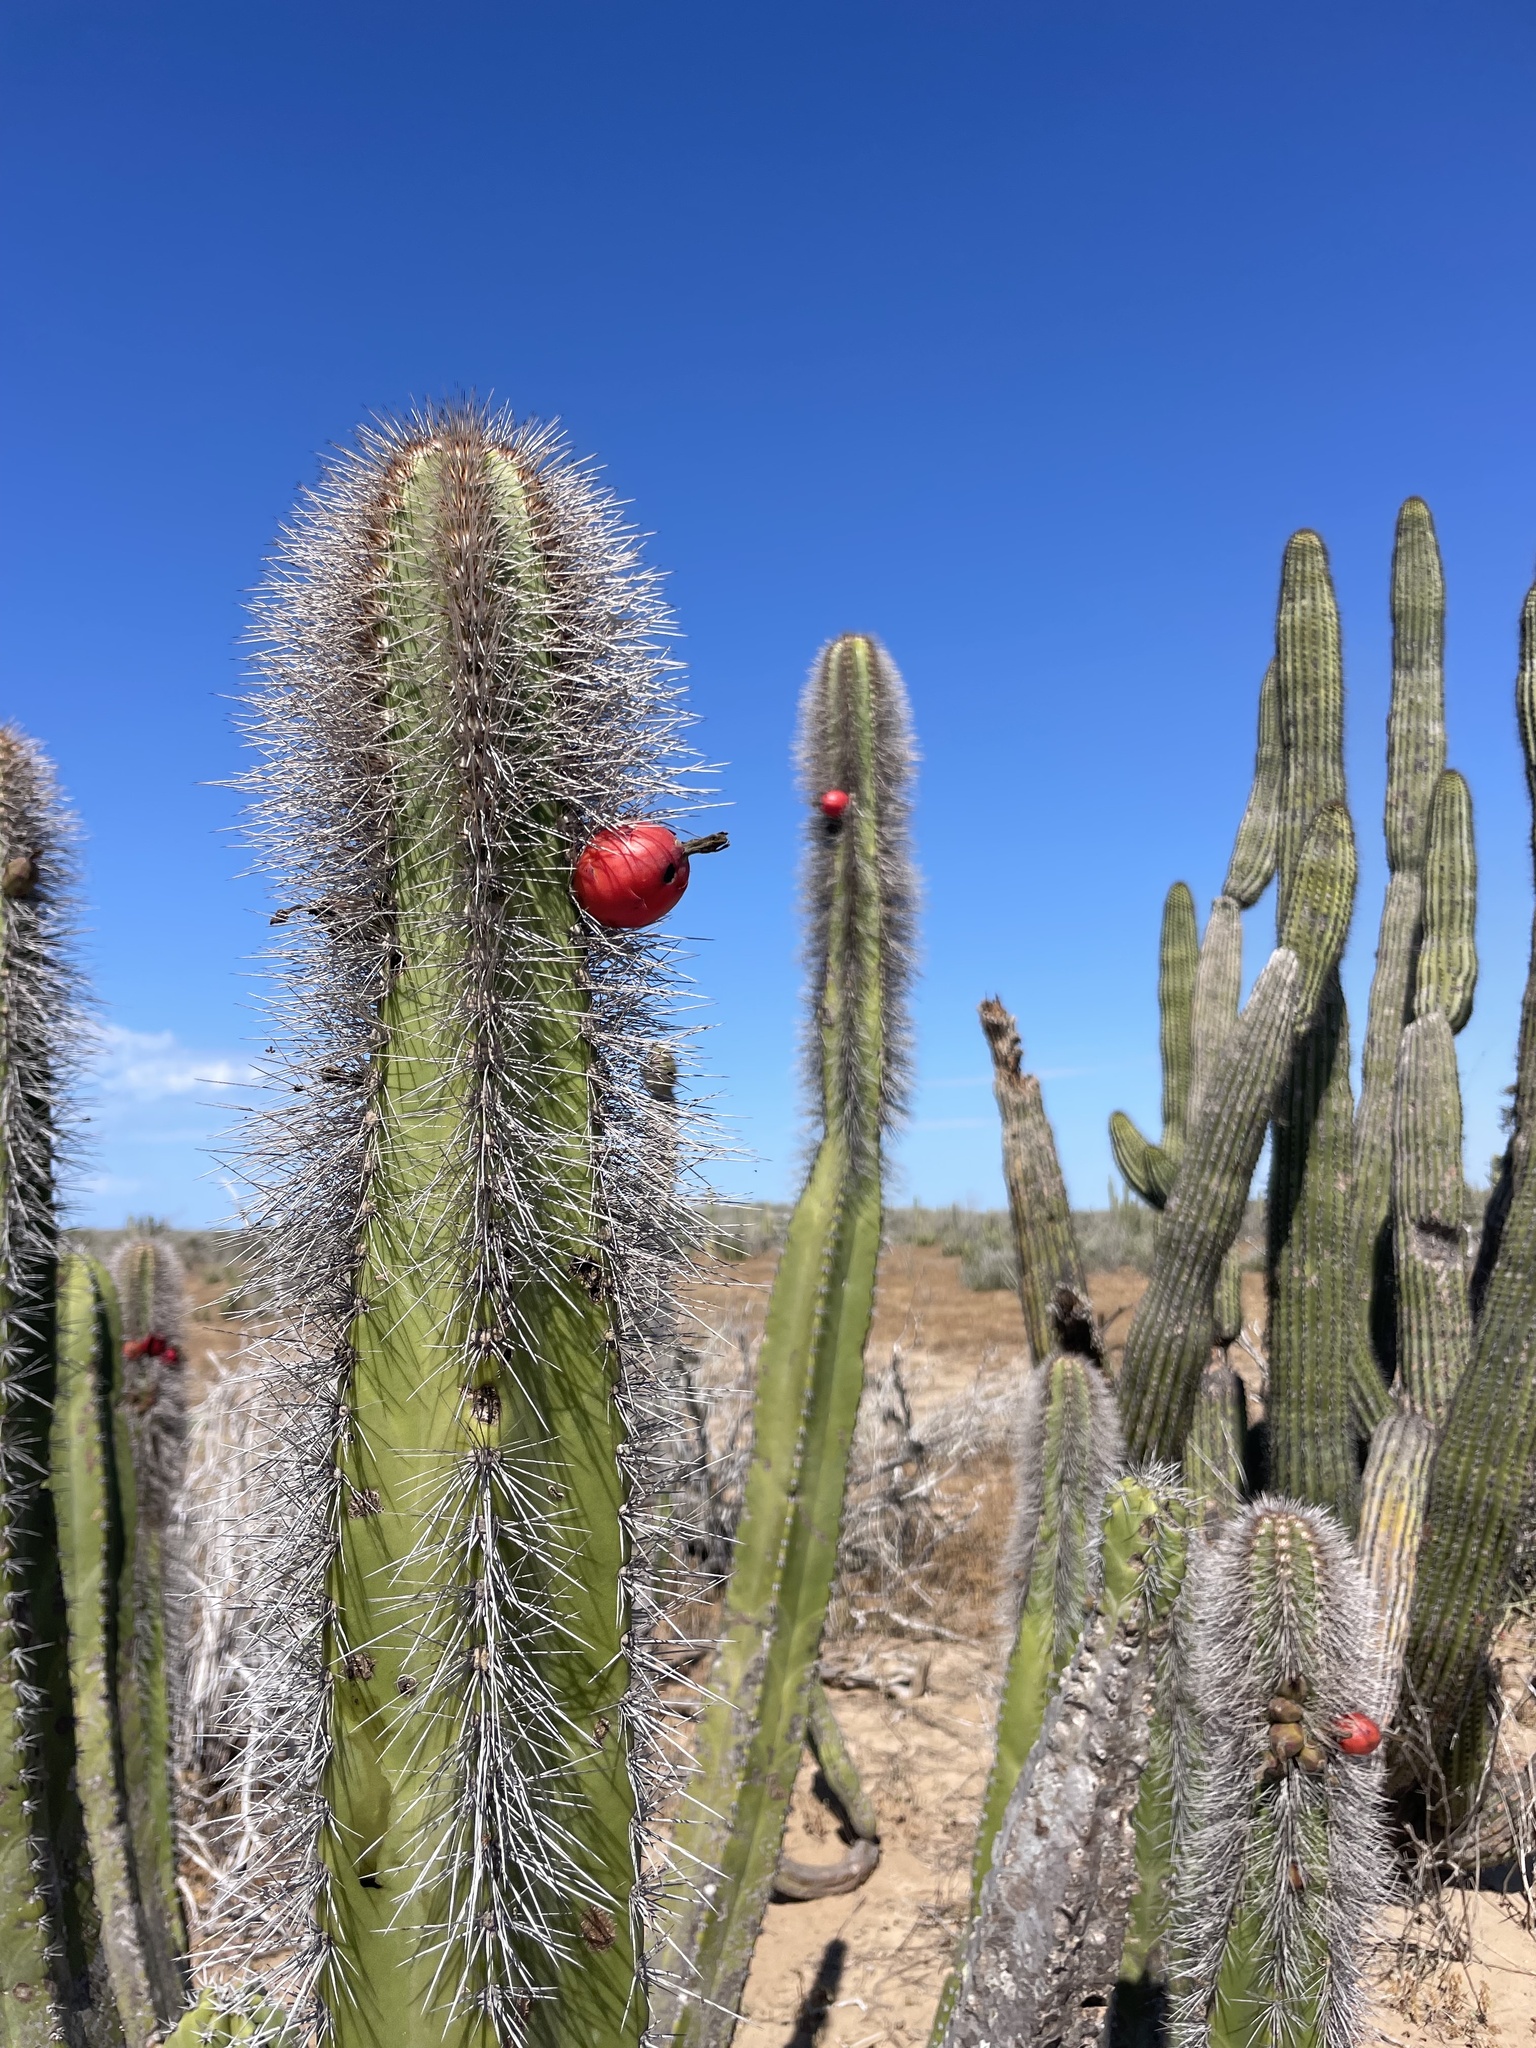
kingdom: Plantae
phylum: Tracheophyta
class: Magnoliopsida
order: Caryophyllales
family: Cactaceae
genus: Pachycereus
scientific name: Pachycereus schottii
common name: Senita cactus
